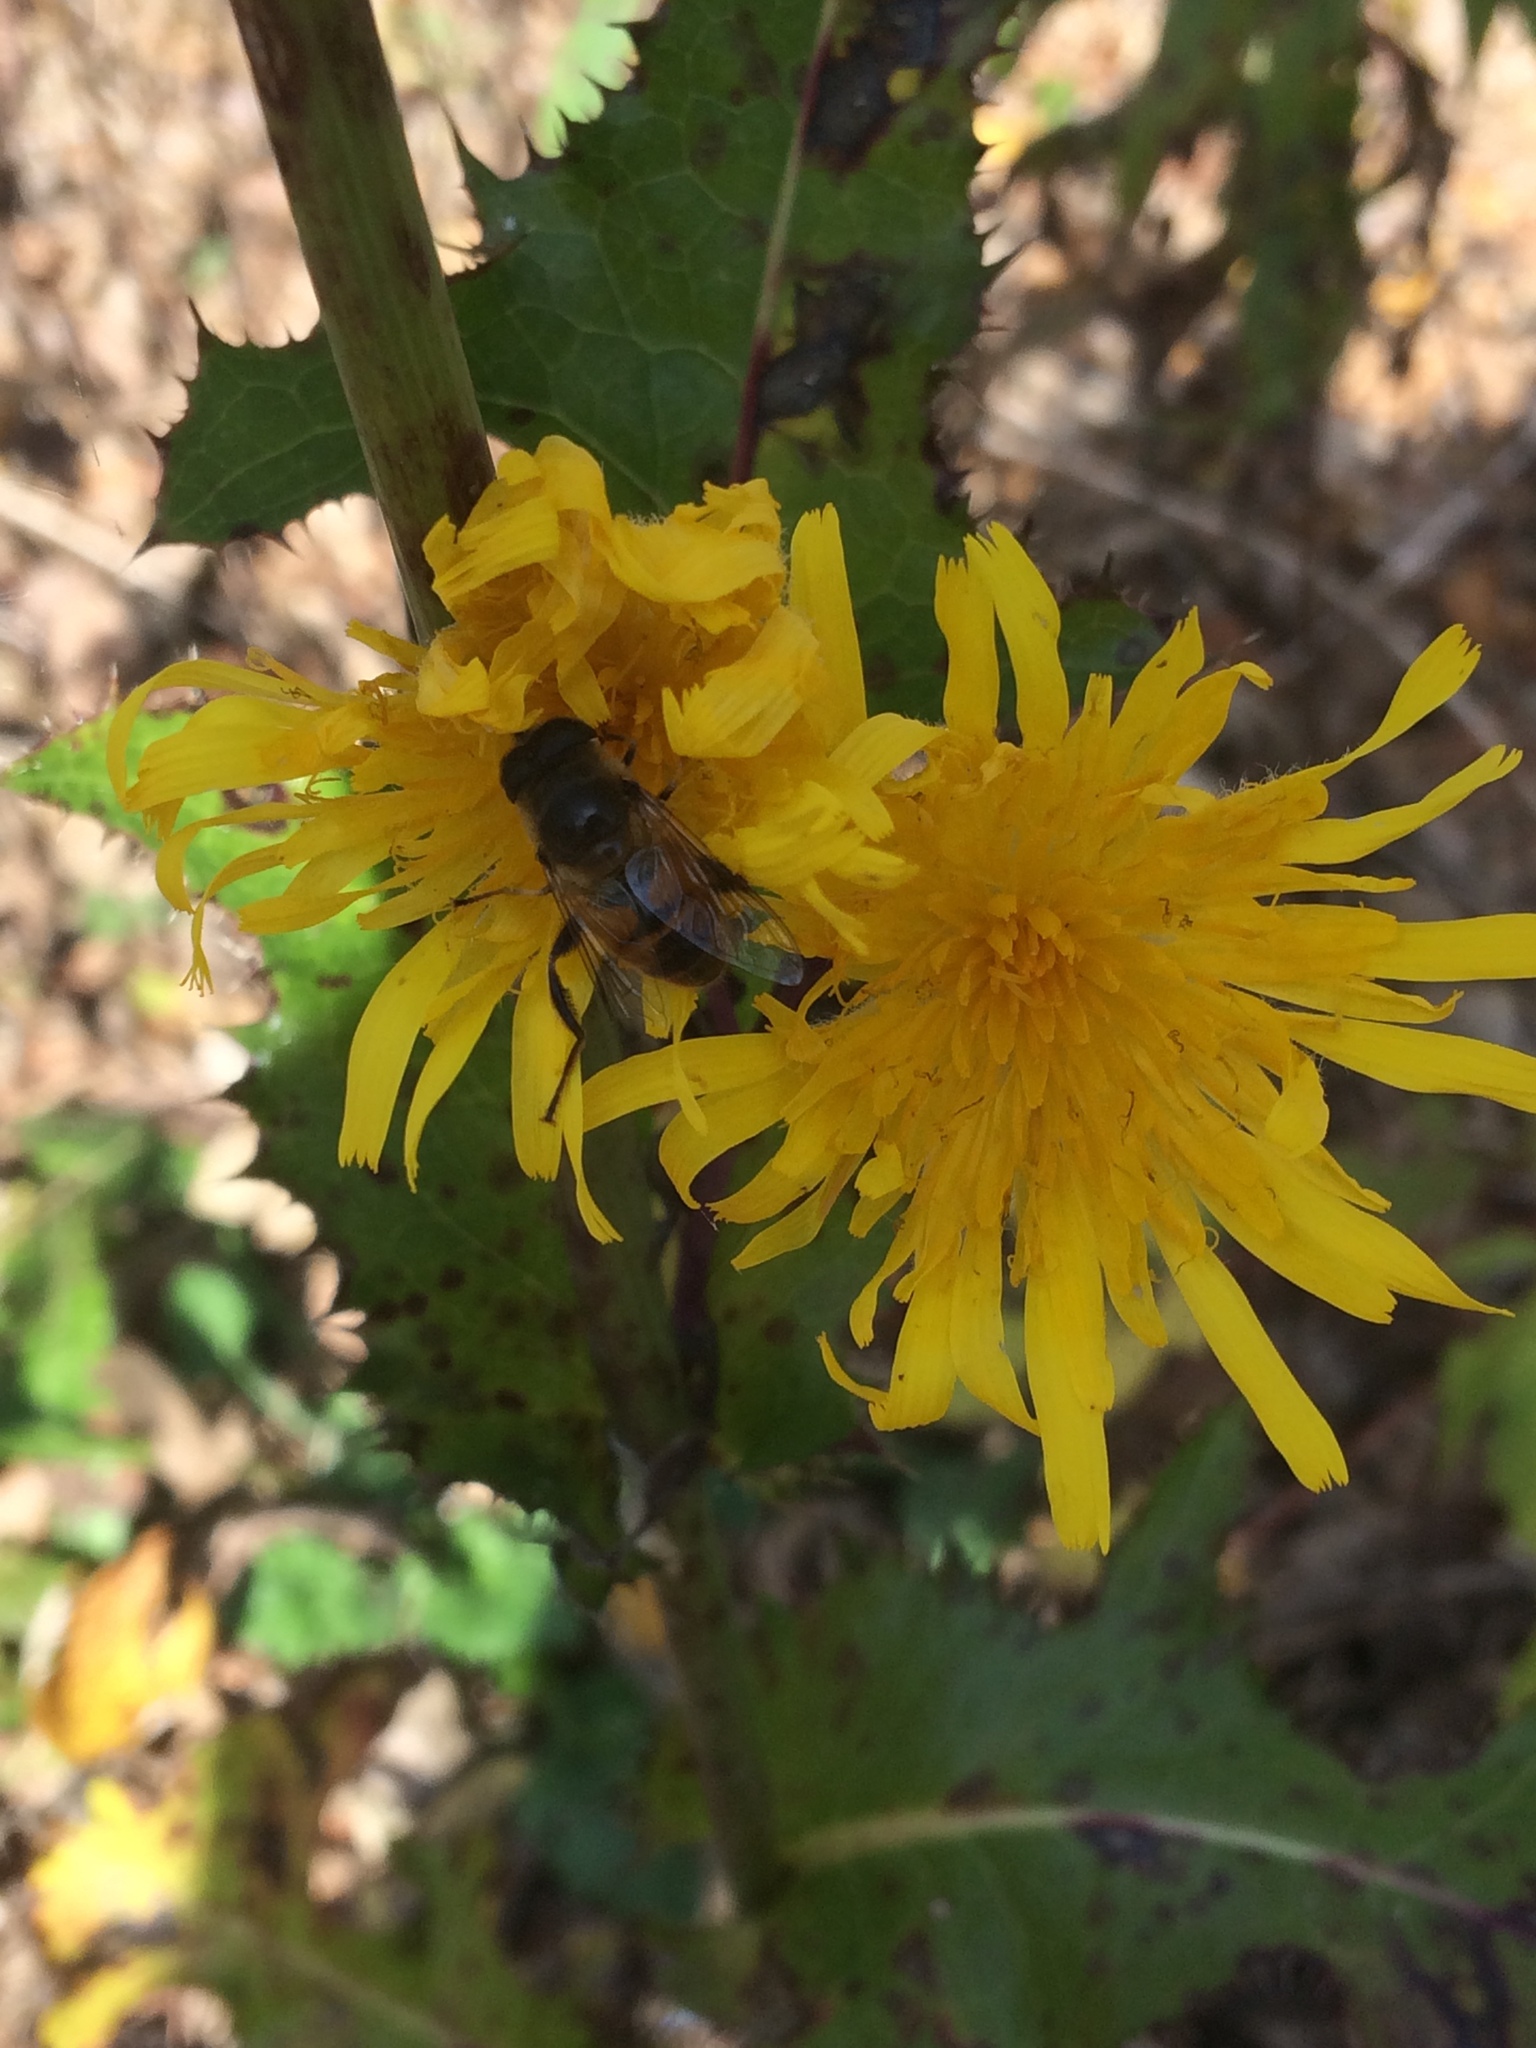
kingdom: Animalia
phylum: Arthropoda
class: Insecta
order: Diptera
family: Syrphidae
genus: Eristalis
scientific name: Eristalis tenax
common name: Drone fly
